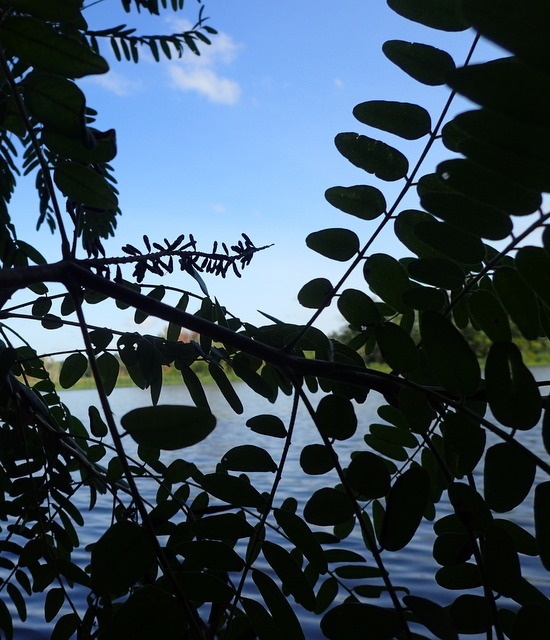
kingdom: Plantae
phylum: Tracheophyta
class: Magnoliopsida
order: Fabales
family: Fabaceae
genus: Amorpha
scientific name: Amorpha fruticosa
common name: False indigo
